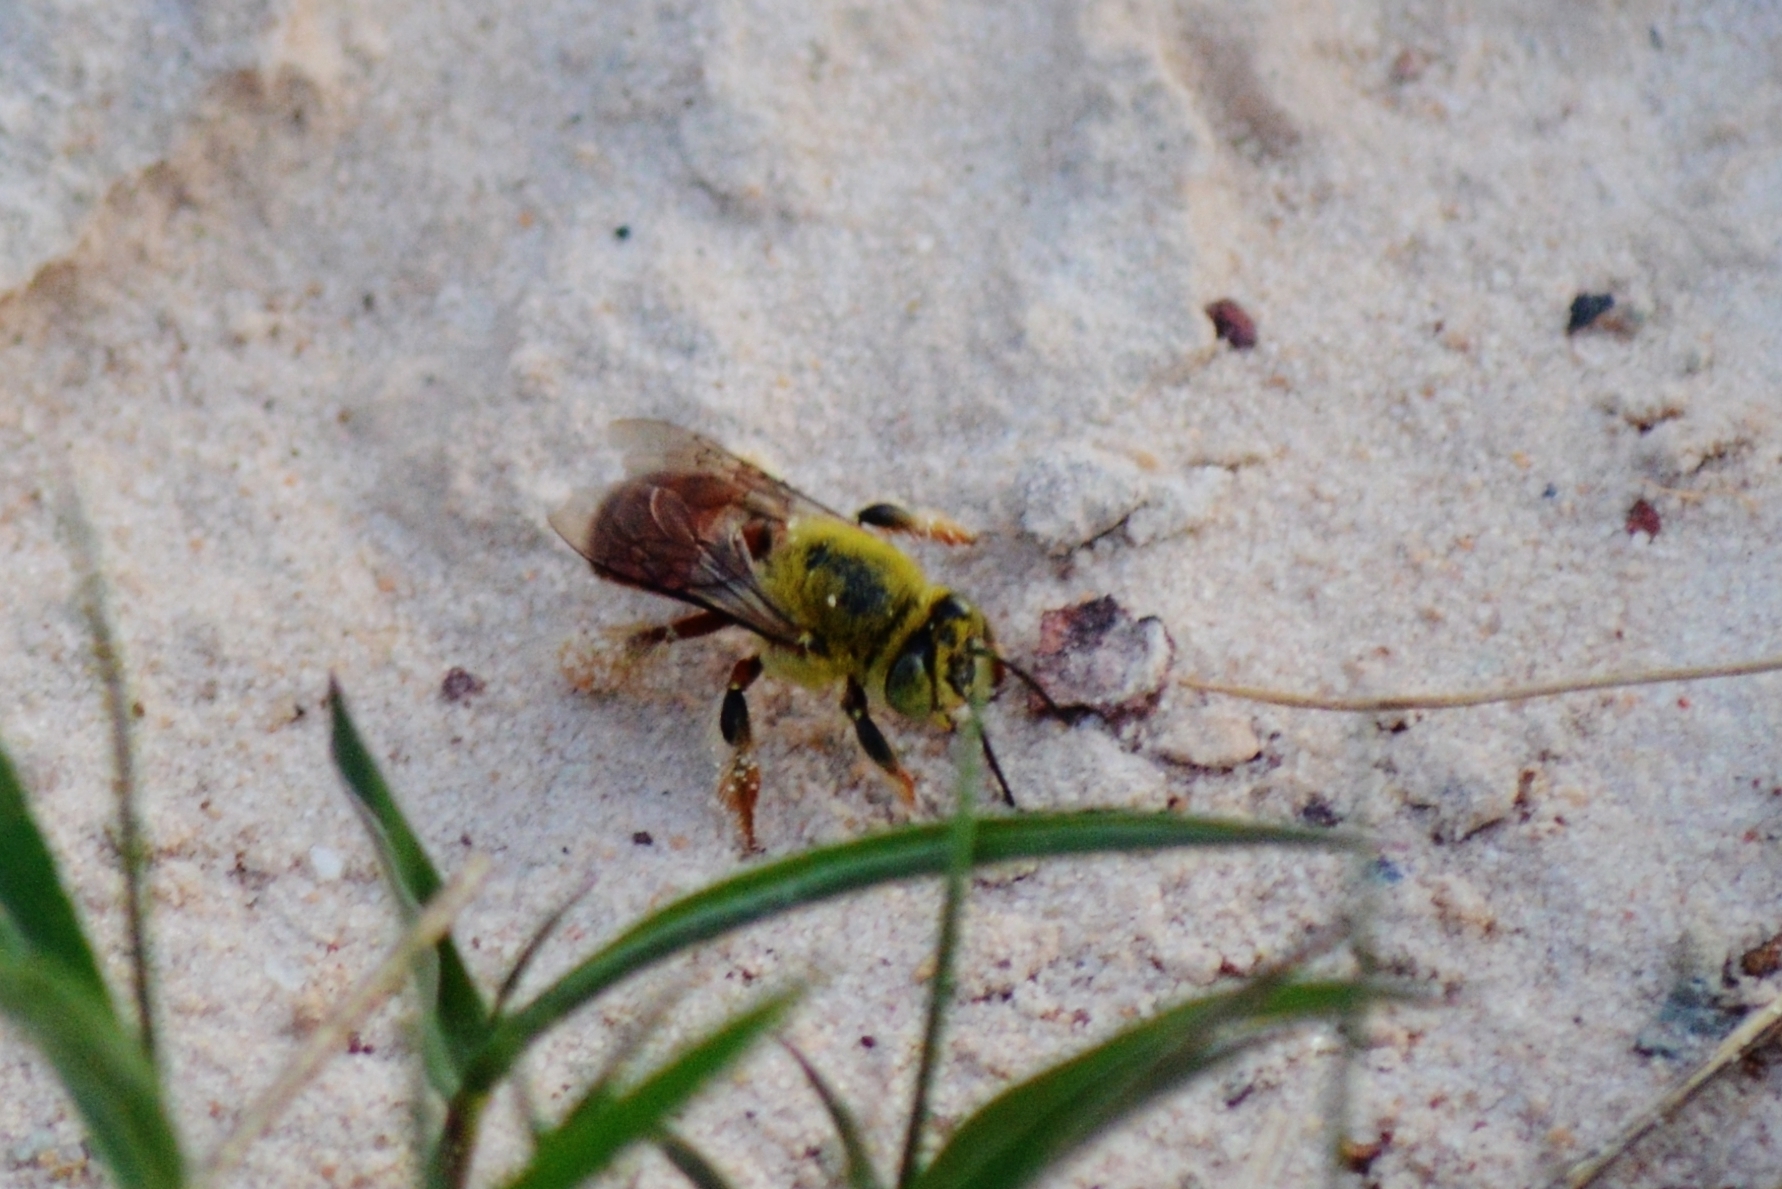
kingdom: Animalia
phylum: Arthropoda
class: Insecta
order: Hymenoptera
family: Apidae
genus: Centris
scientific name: Centris tarsata
